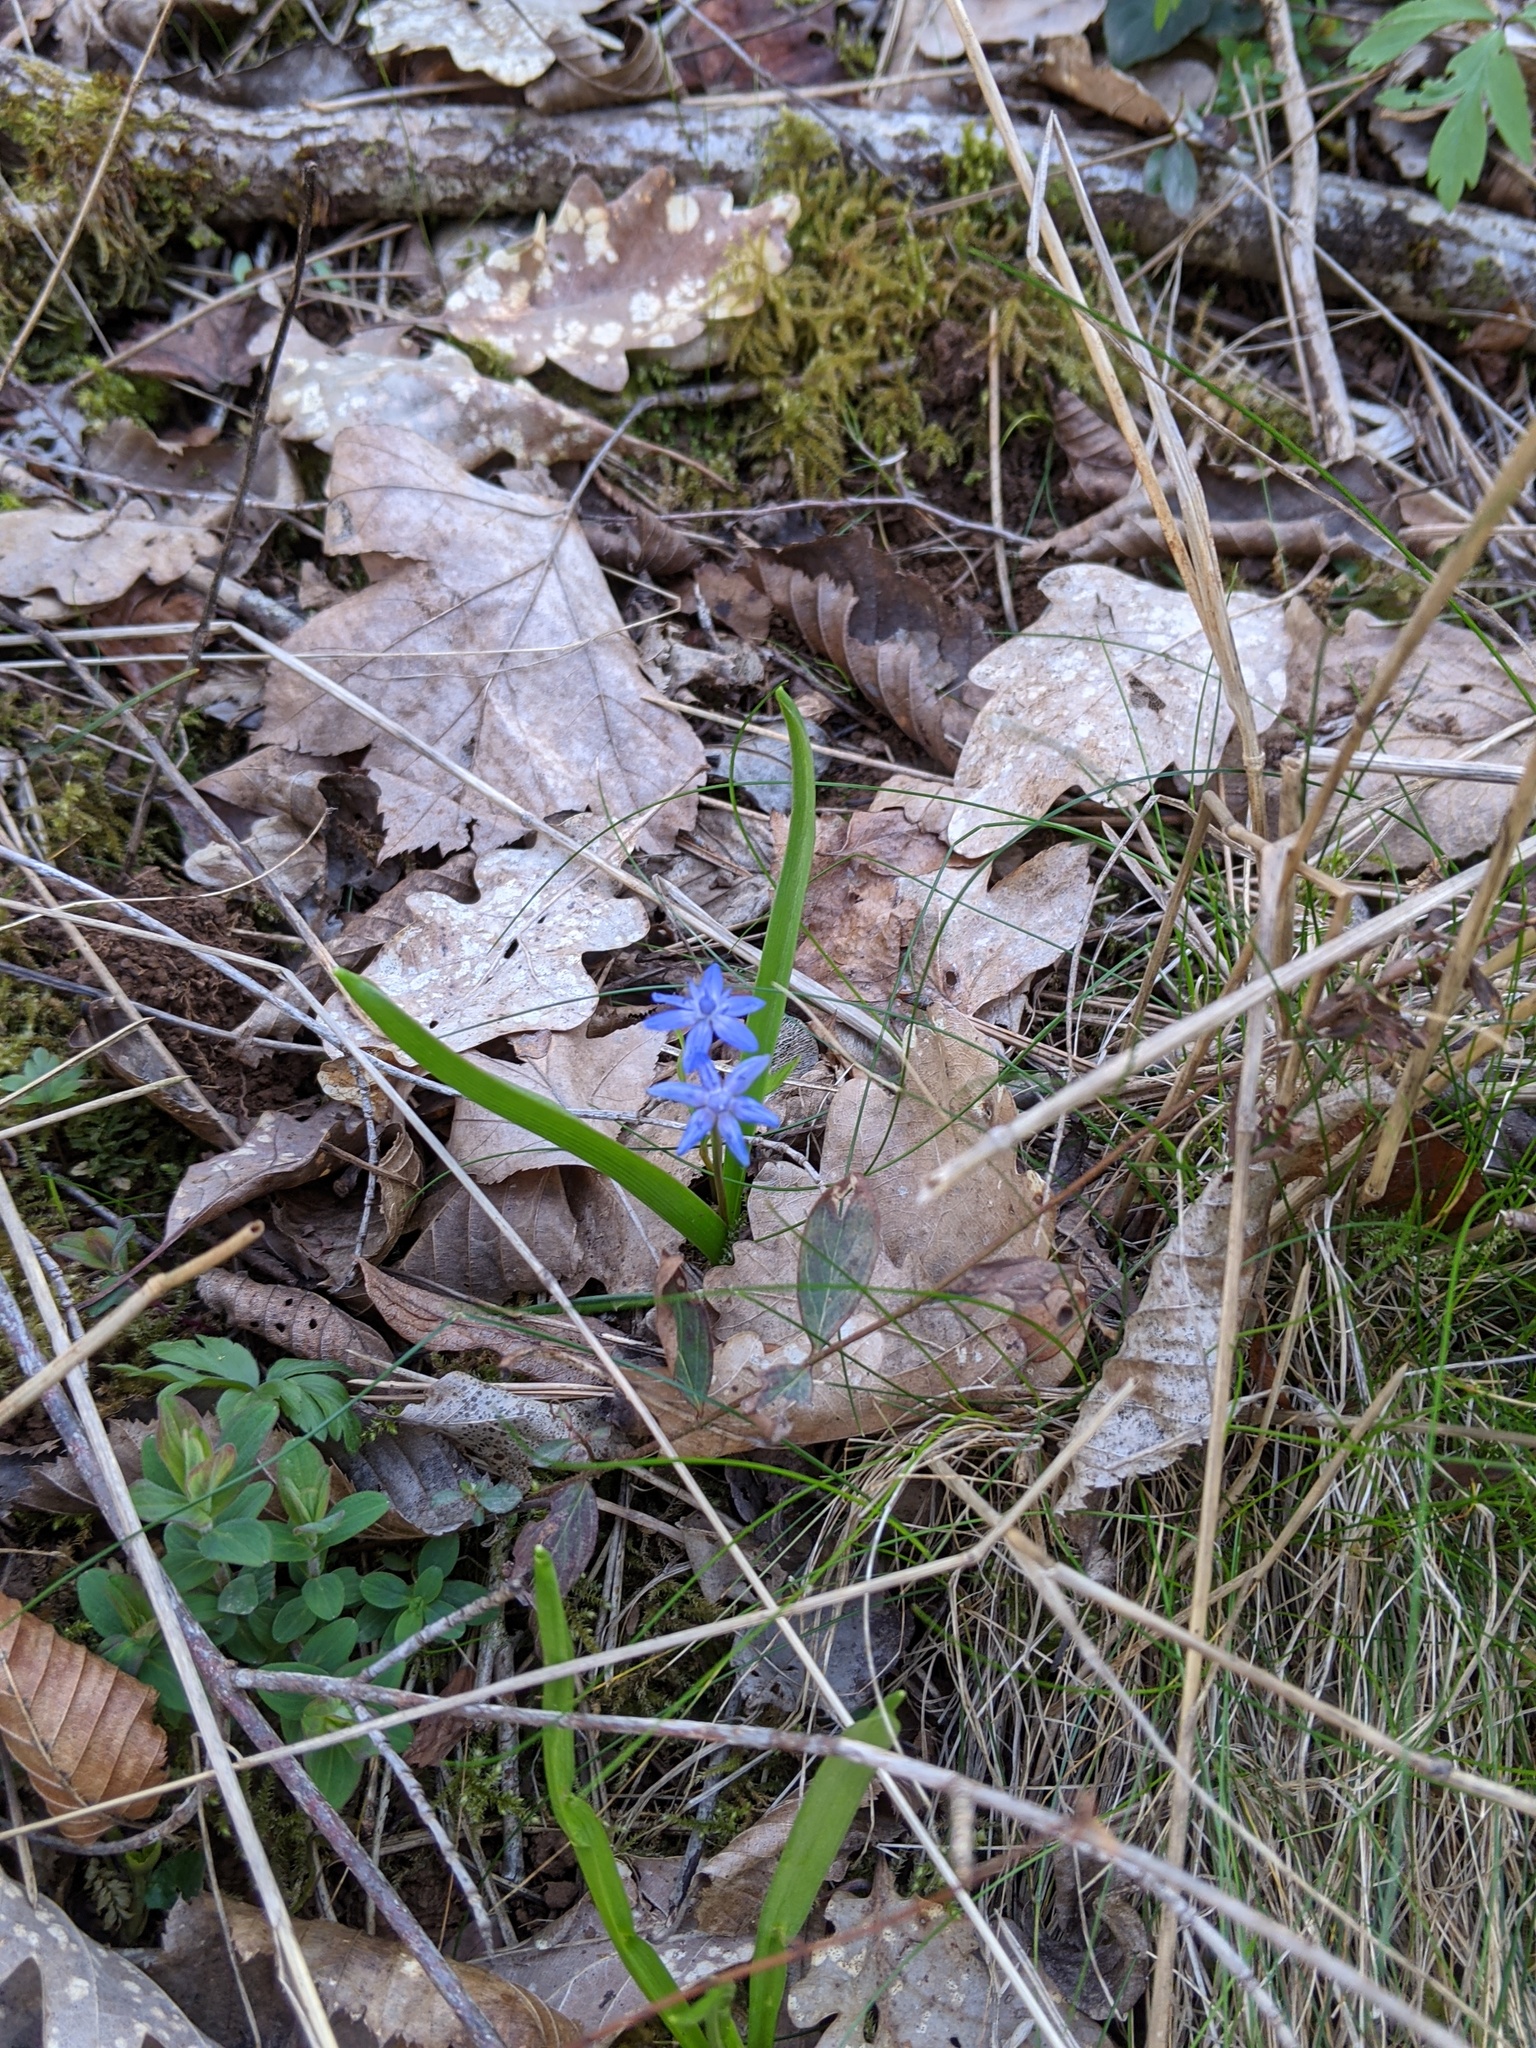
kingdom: Plantae
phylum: Tracheophyta
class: Liliopsida
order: Asparagales
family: Asparagaceae
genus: Scilla
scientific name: Scilla bifolia
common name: Alpine squill
